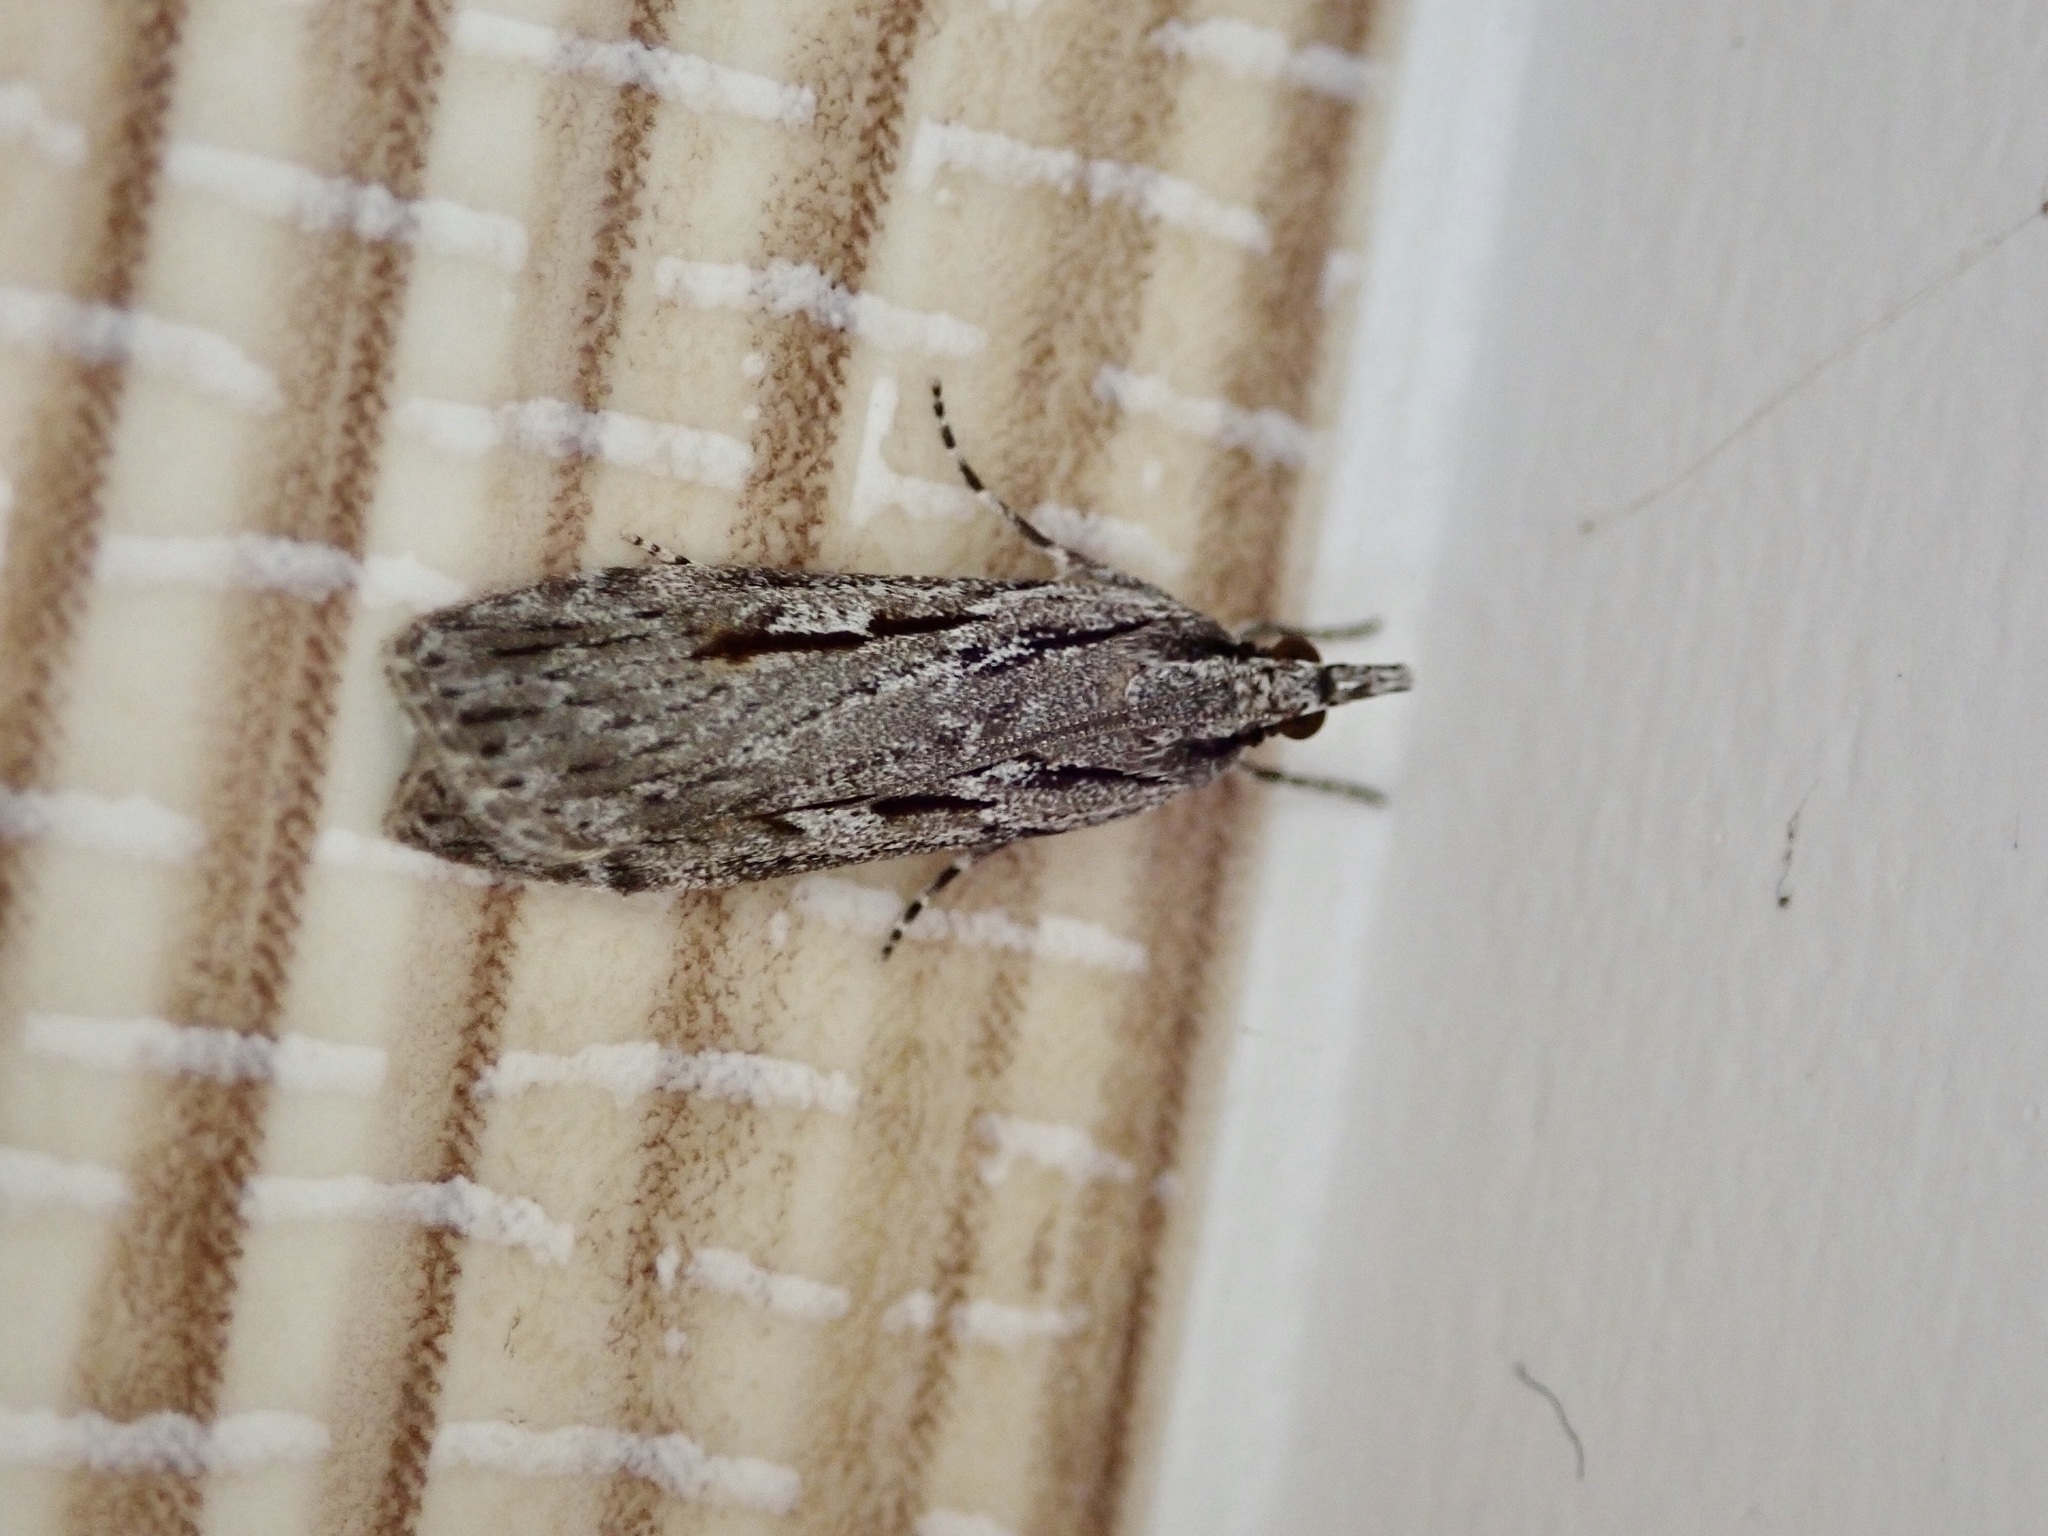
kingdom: Animalia
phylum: Arthropoda
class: Insecta
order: Lepidoptera
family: Crambidae
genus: Scoparia
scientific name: Scoparia indistinctalis
